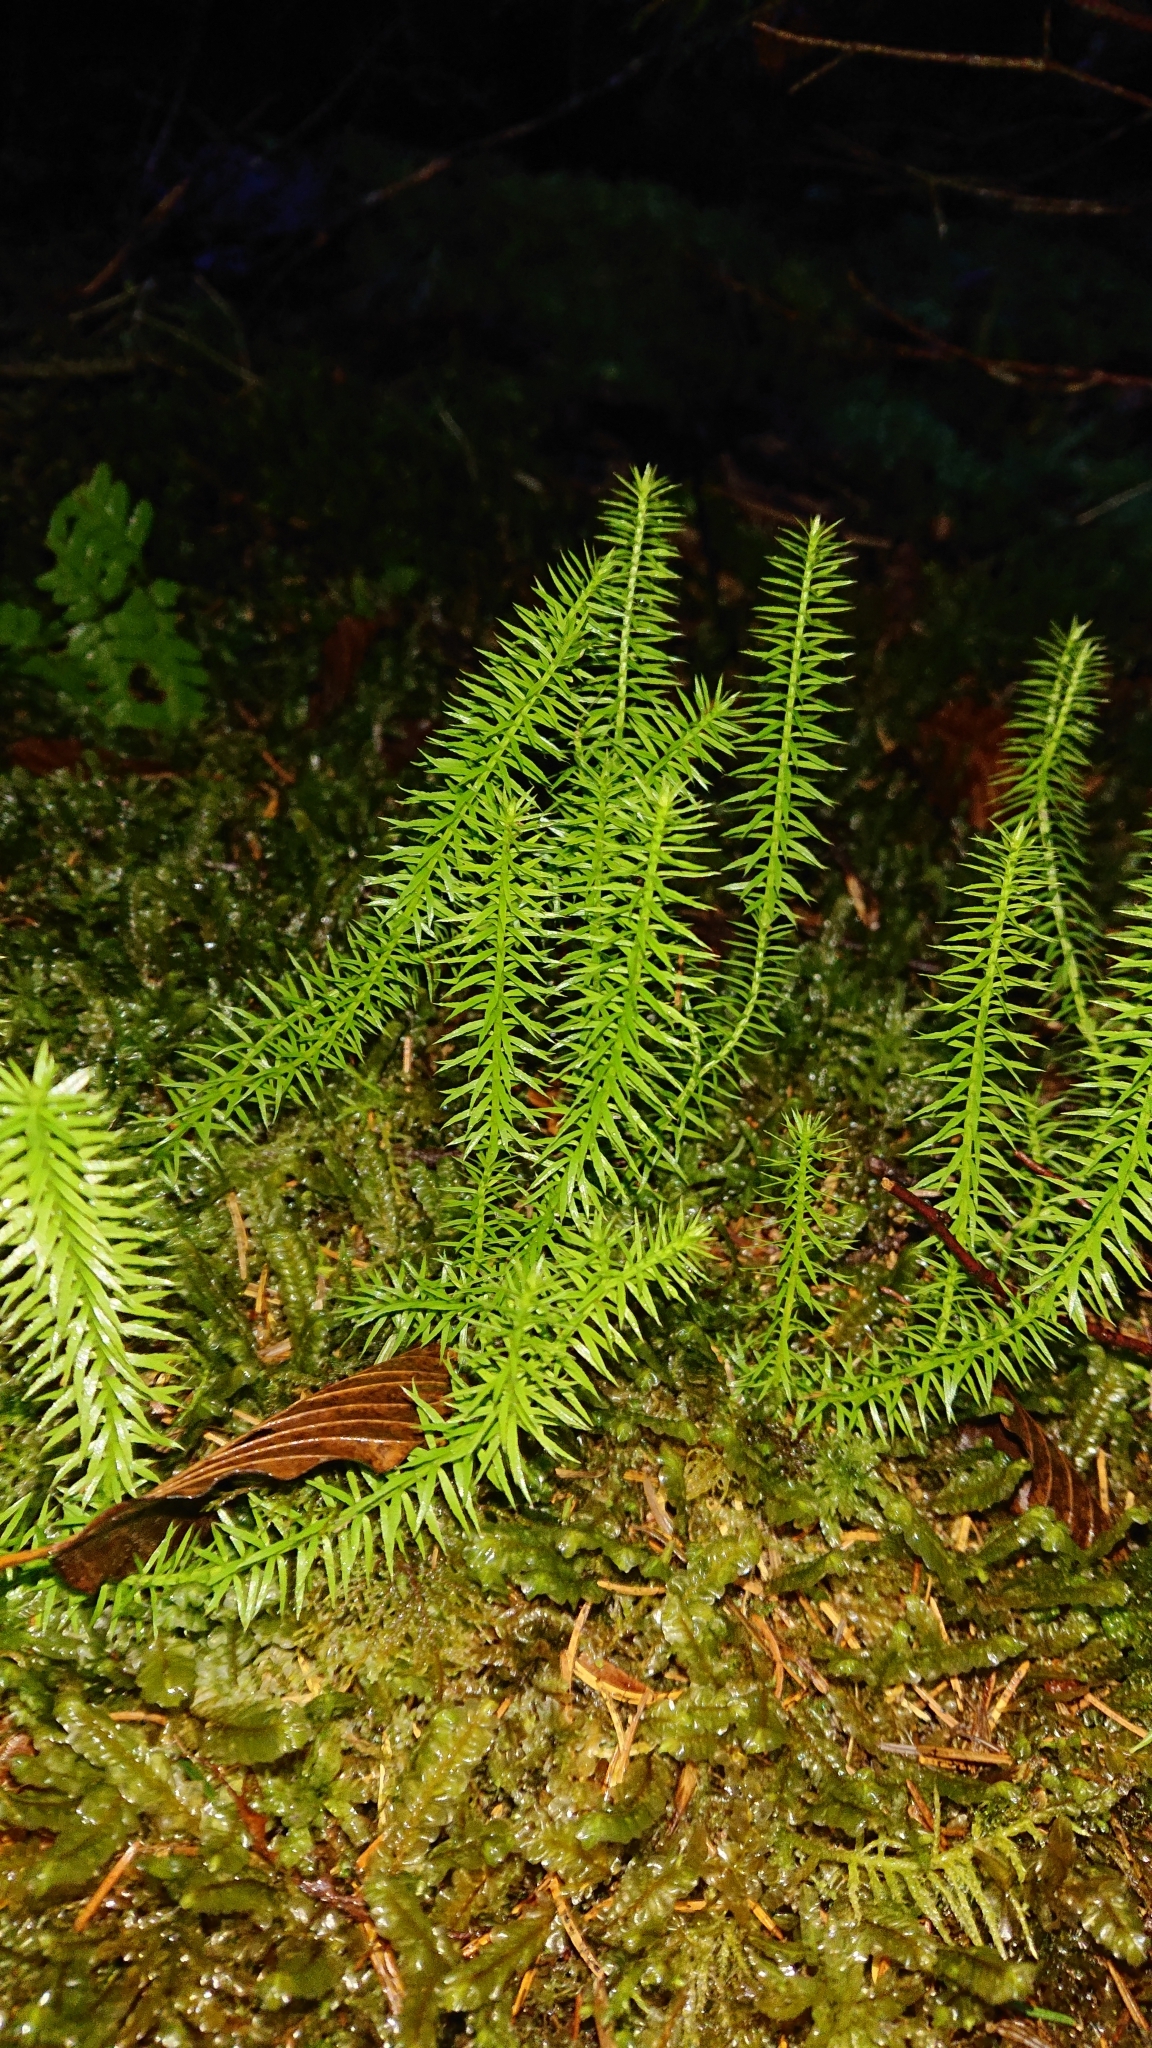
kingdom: Plantae
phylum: Tracheophyta
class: Lycopodiopsida
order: Lycopodiales
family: Lycopodiaceae
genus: Spinulum
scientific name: Spinulum annotinum
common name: Interrupted club-moss
